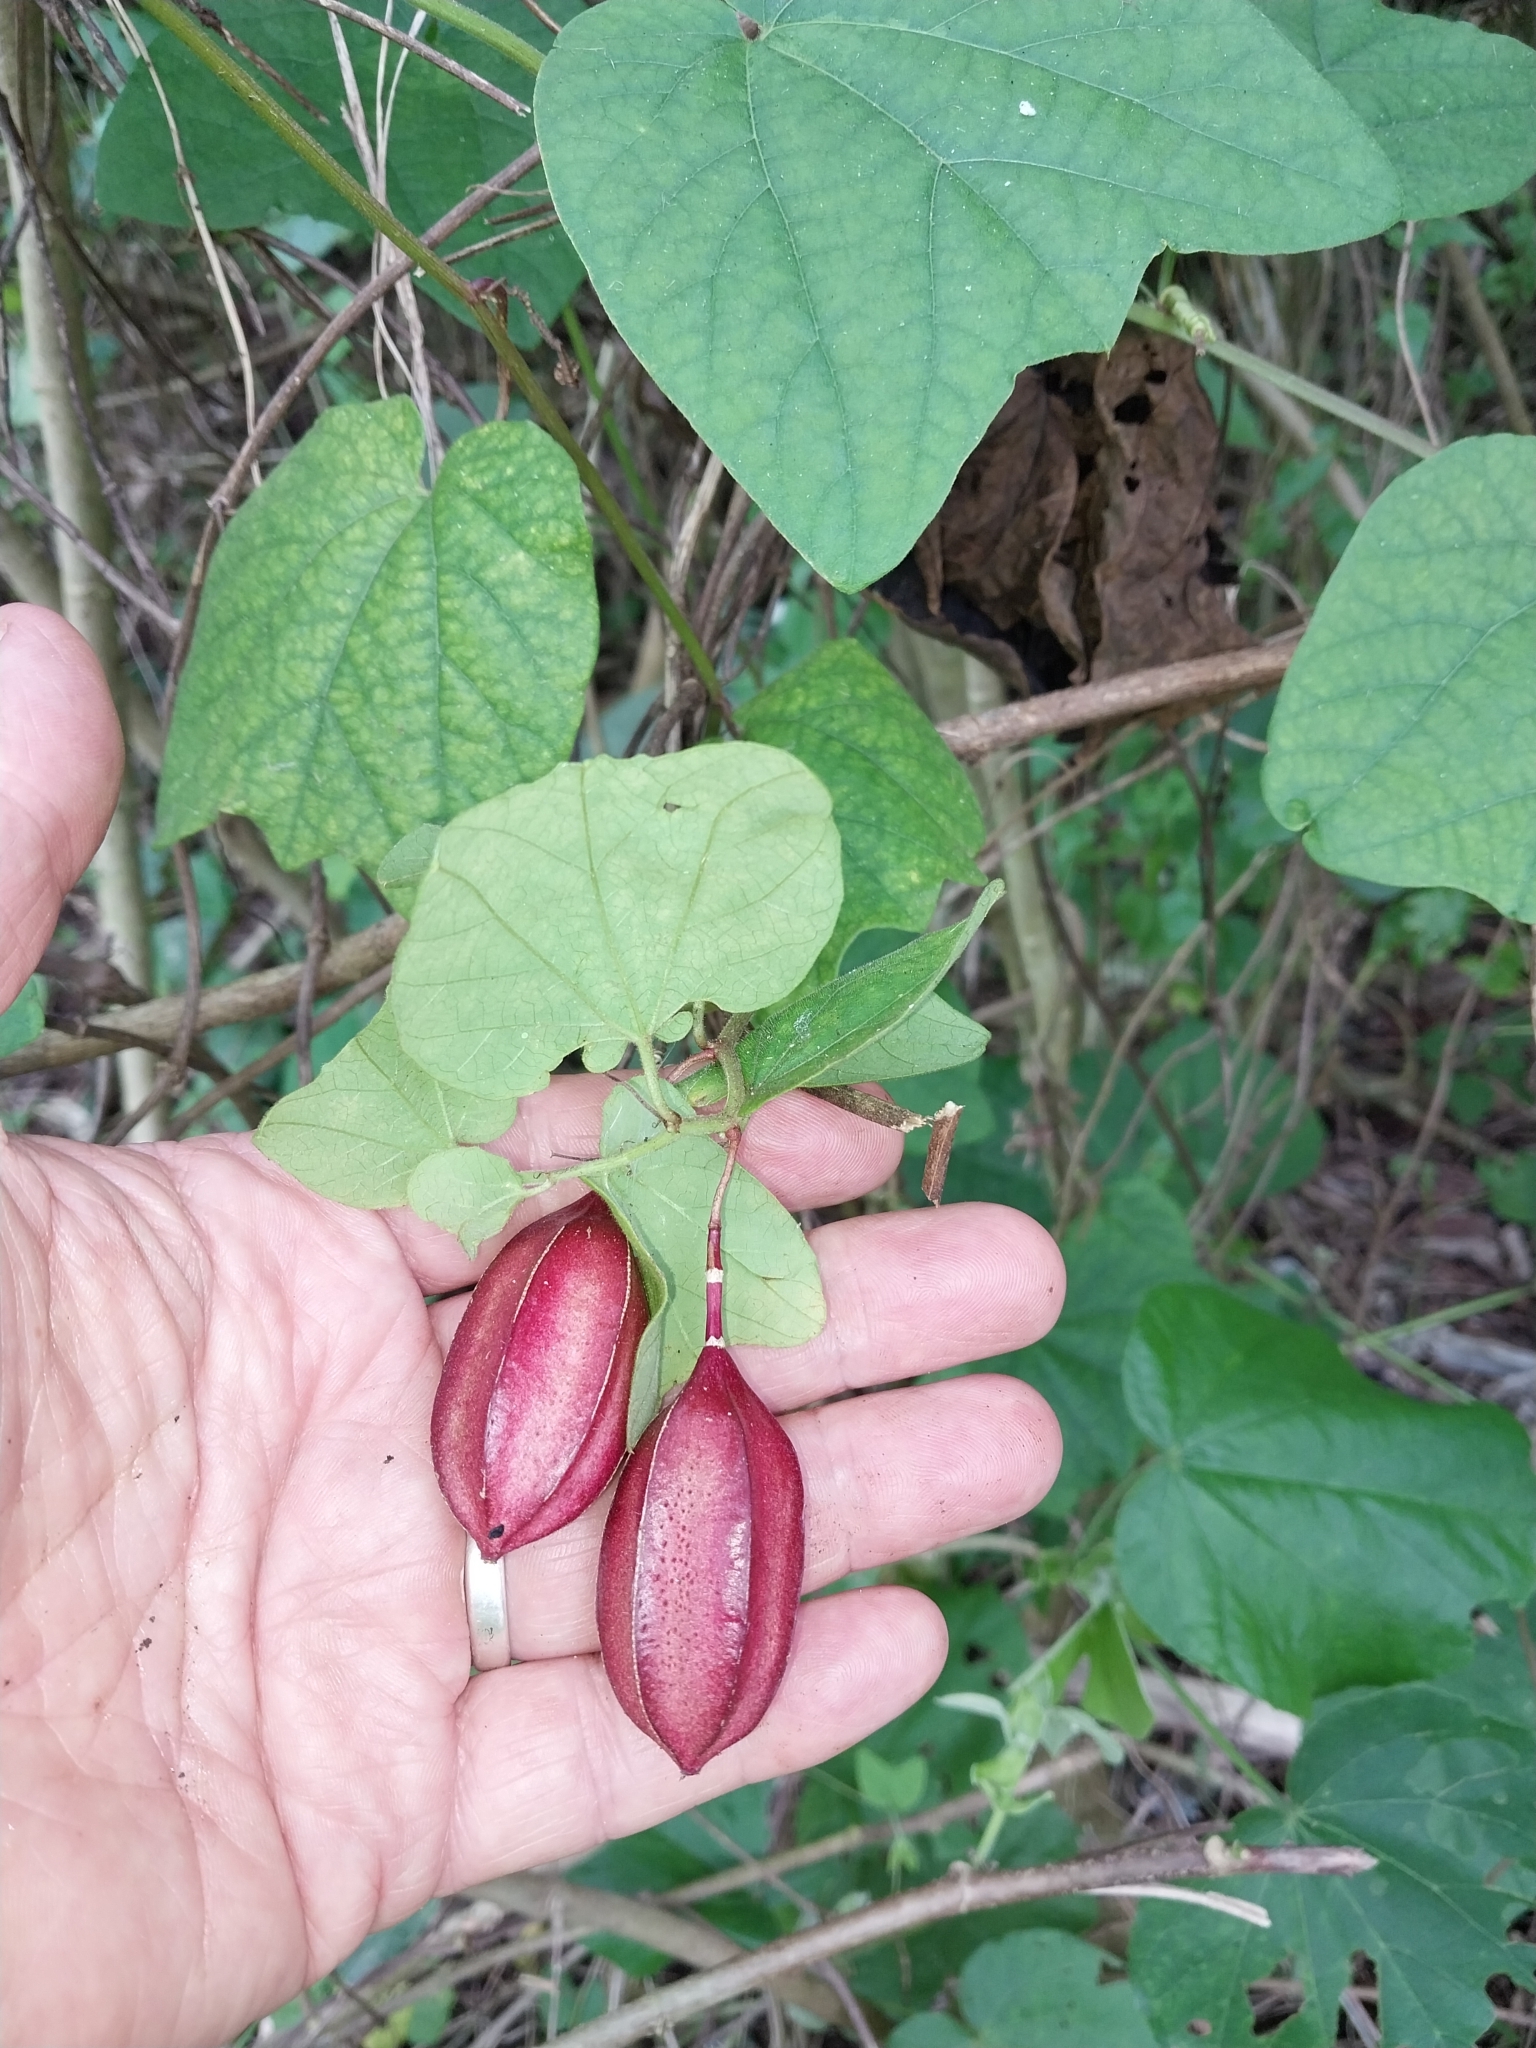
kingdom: Plantae
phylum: Tracheophyta
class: Magnoliopsida
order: Malpighiales
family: Passifloraceae
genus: Passiflora
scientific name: Passiflora rubra
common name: Snakeberry vine
